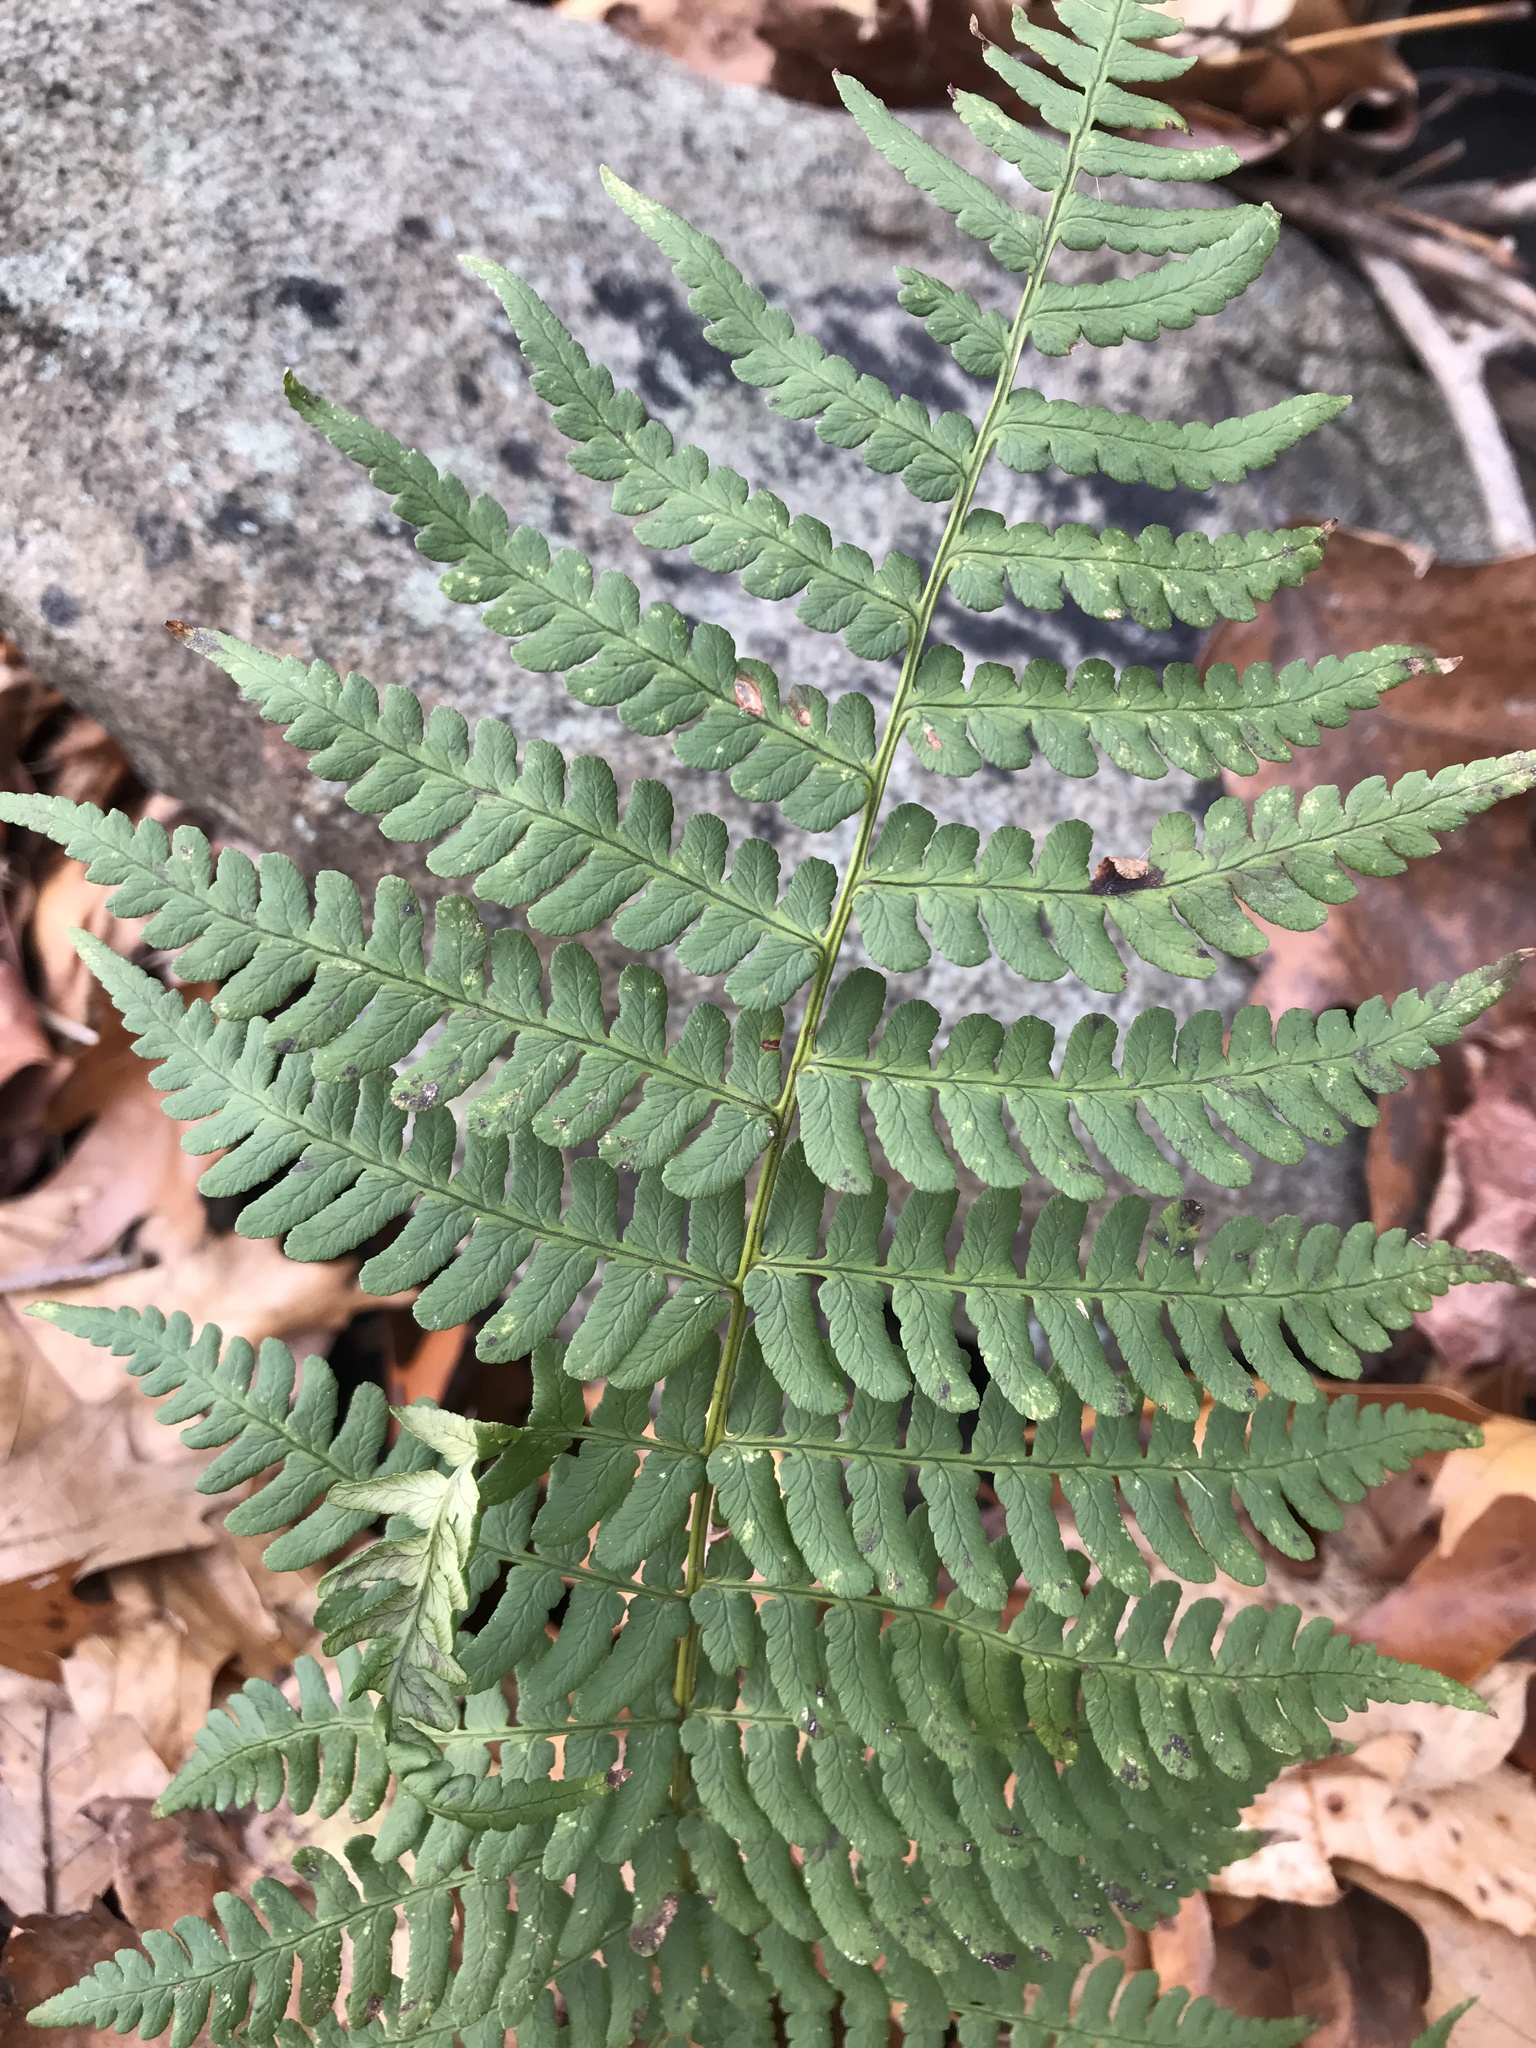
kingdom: Plantae
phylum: Tracheophyta
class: Polypodiopsida
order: Polypodiales
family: Dryopteridaceae
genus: Dryopteris
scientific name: Dryopteris marginalis
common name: Marginal wood fern
